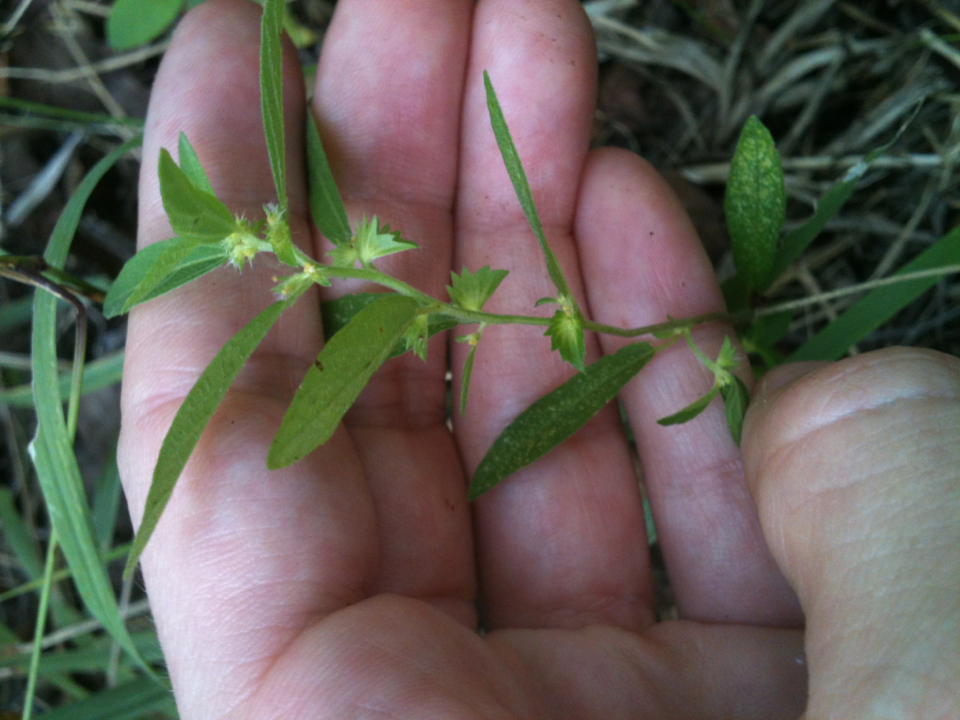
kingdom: Plantae
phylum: Tracheophyta
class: Magnoliopsida
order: Malpighiales
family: Euphorbiaceae
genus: Acalypha
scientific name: Acalypha gracilens
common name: Slender three-seeded mercury
